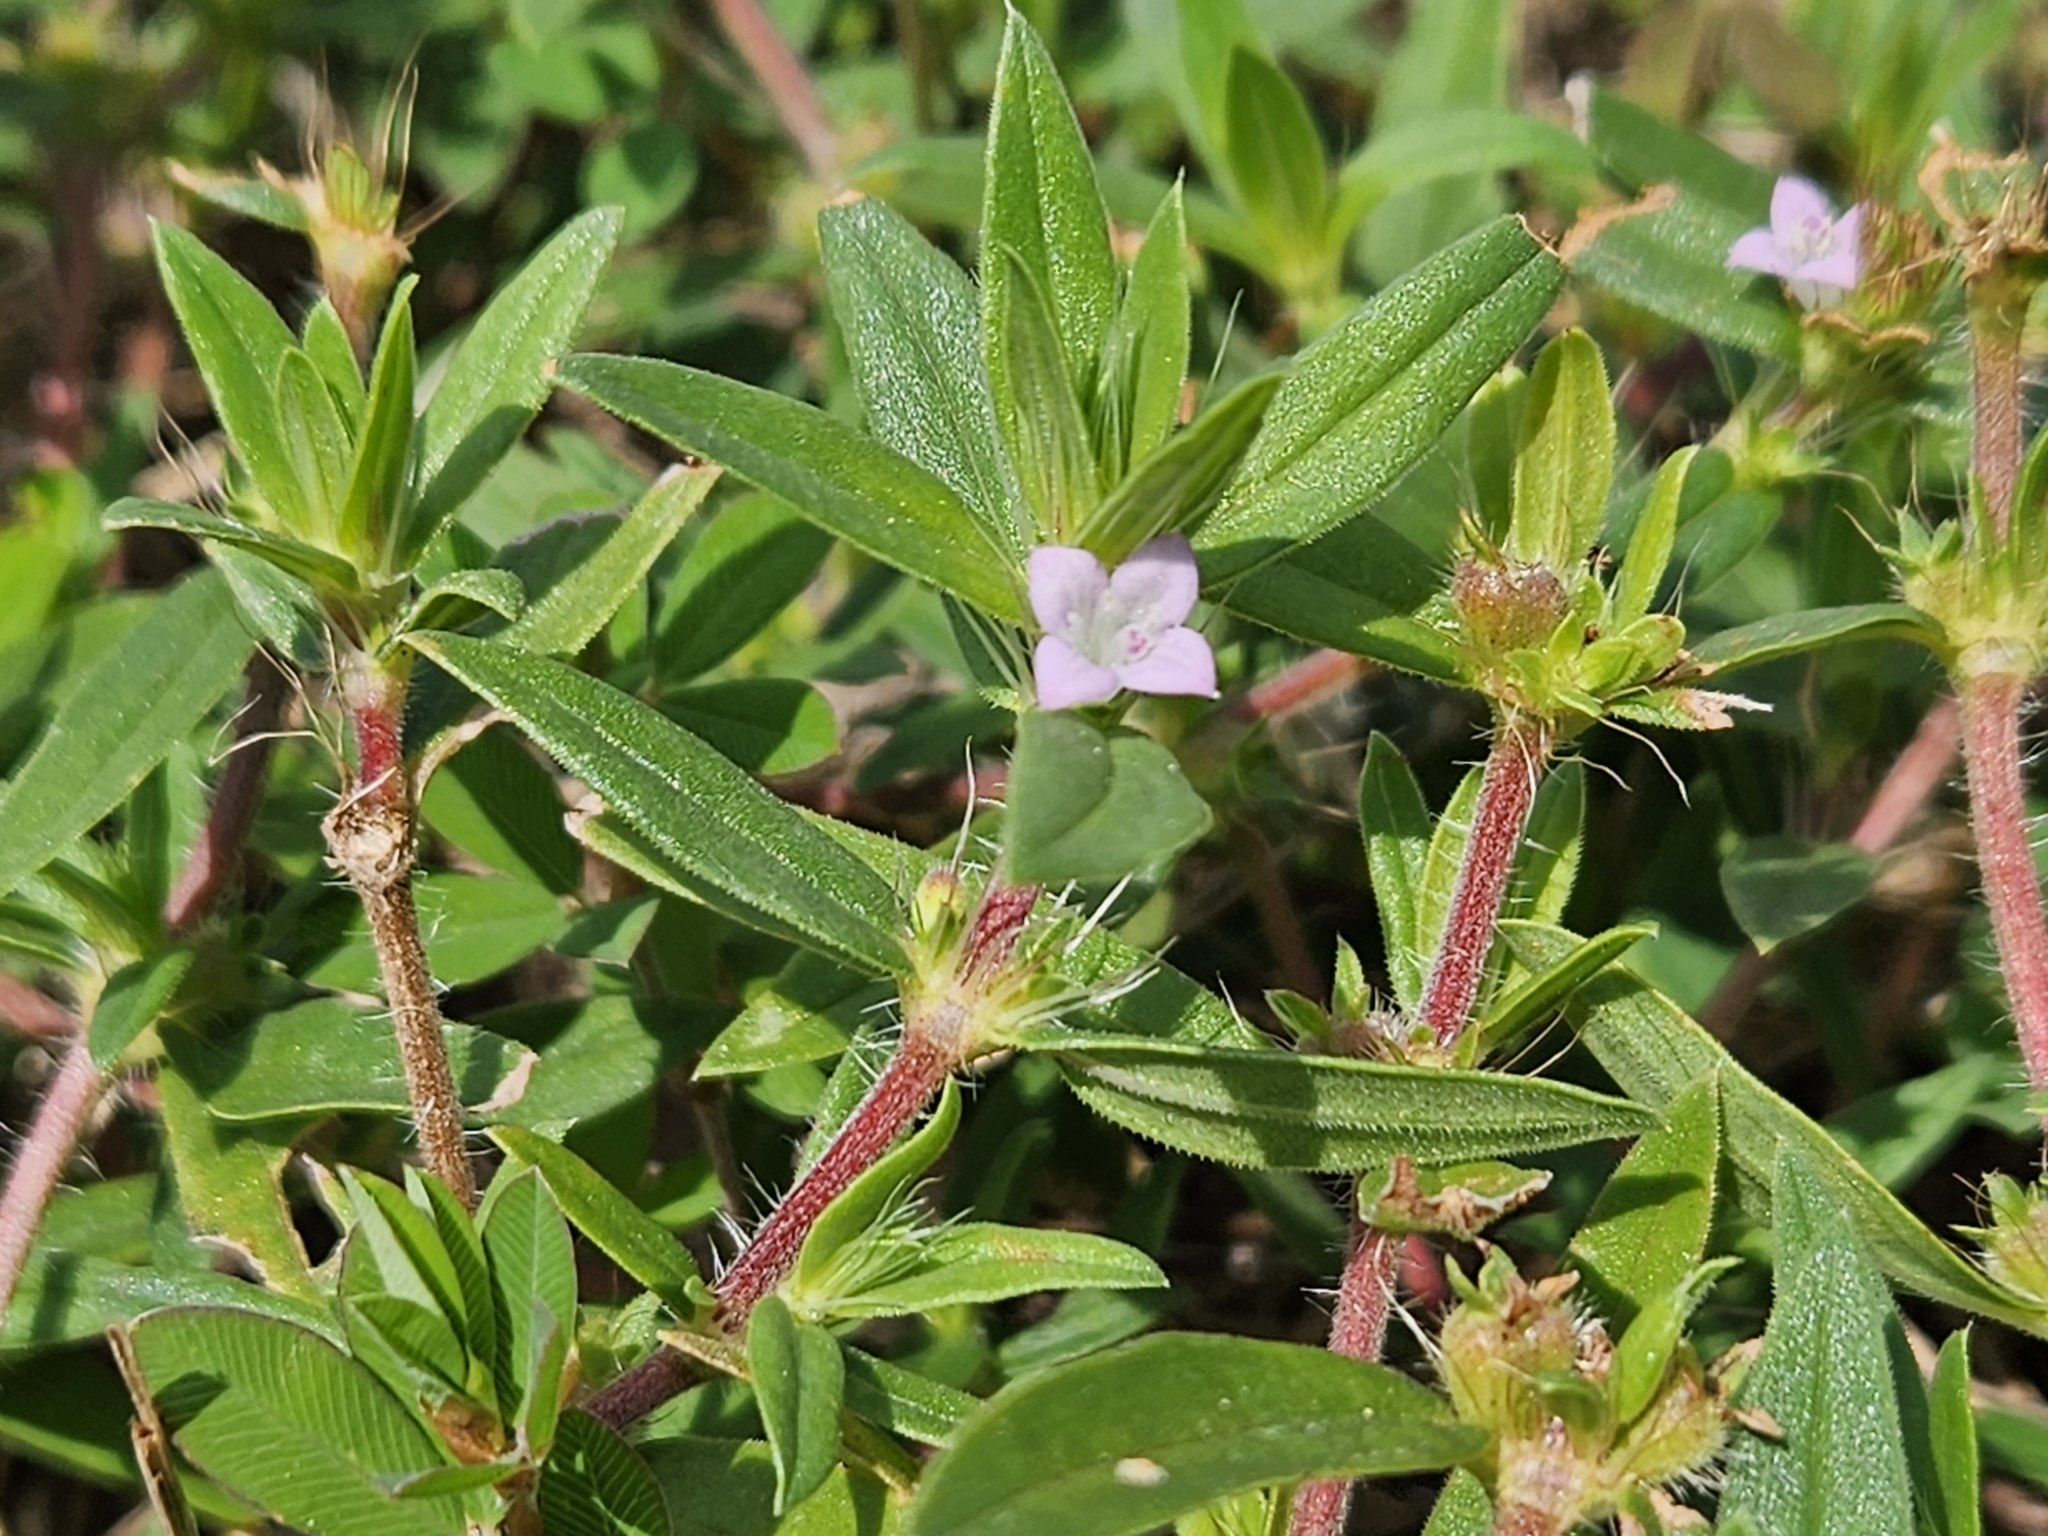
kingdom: Plantae
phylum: Tracheophyta
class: Magnoliopsida
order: Gentianales
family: Rubiaceae
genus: Hexasepalum
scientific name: Hexasepalum teres
